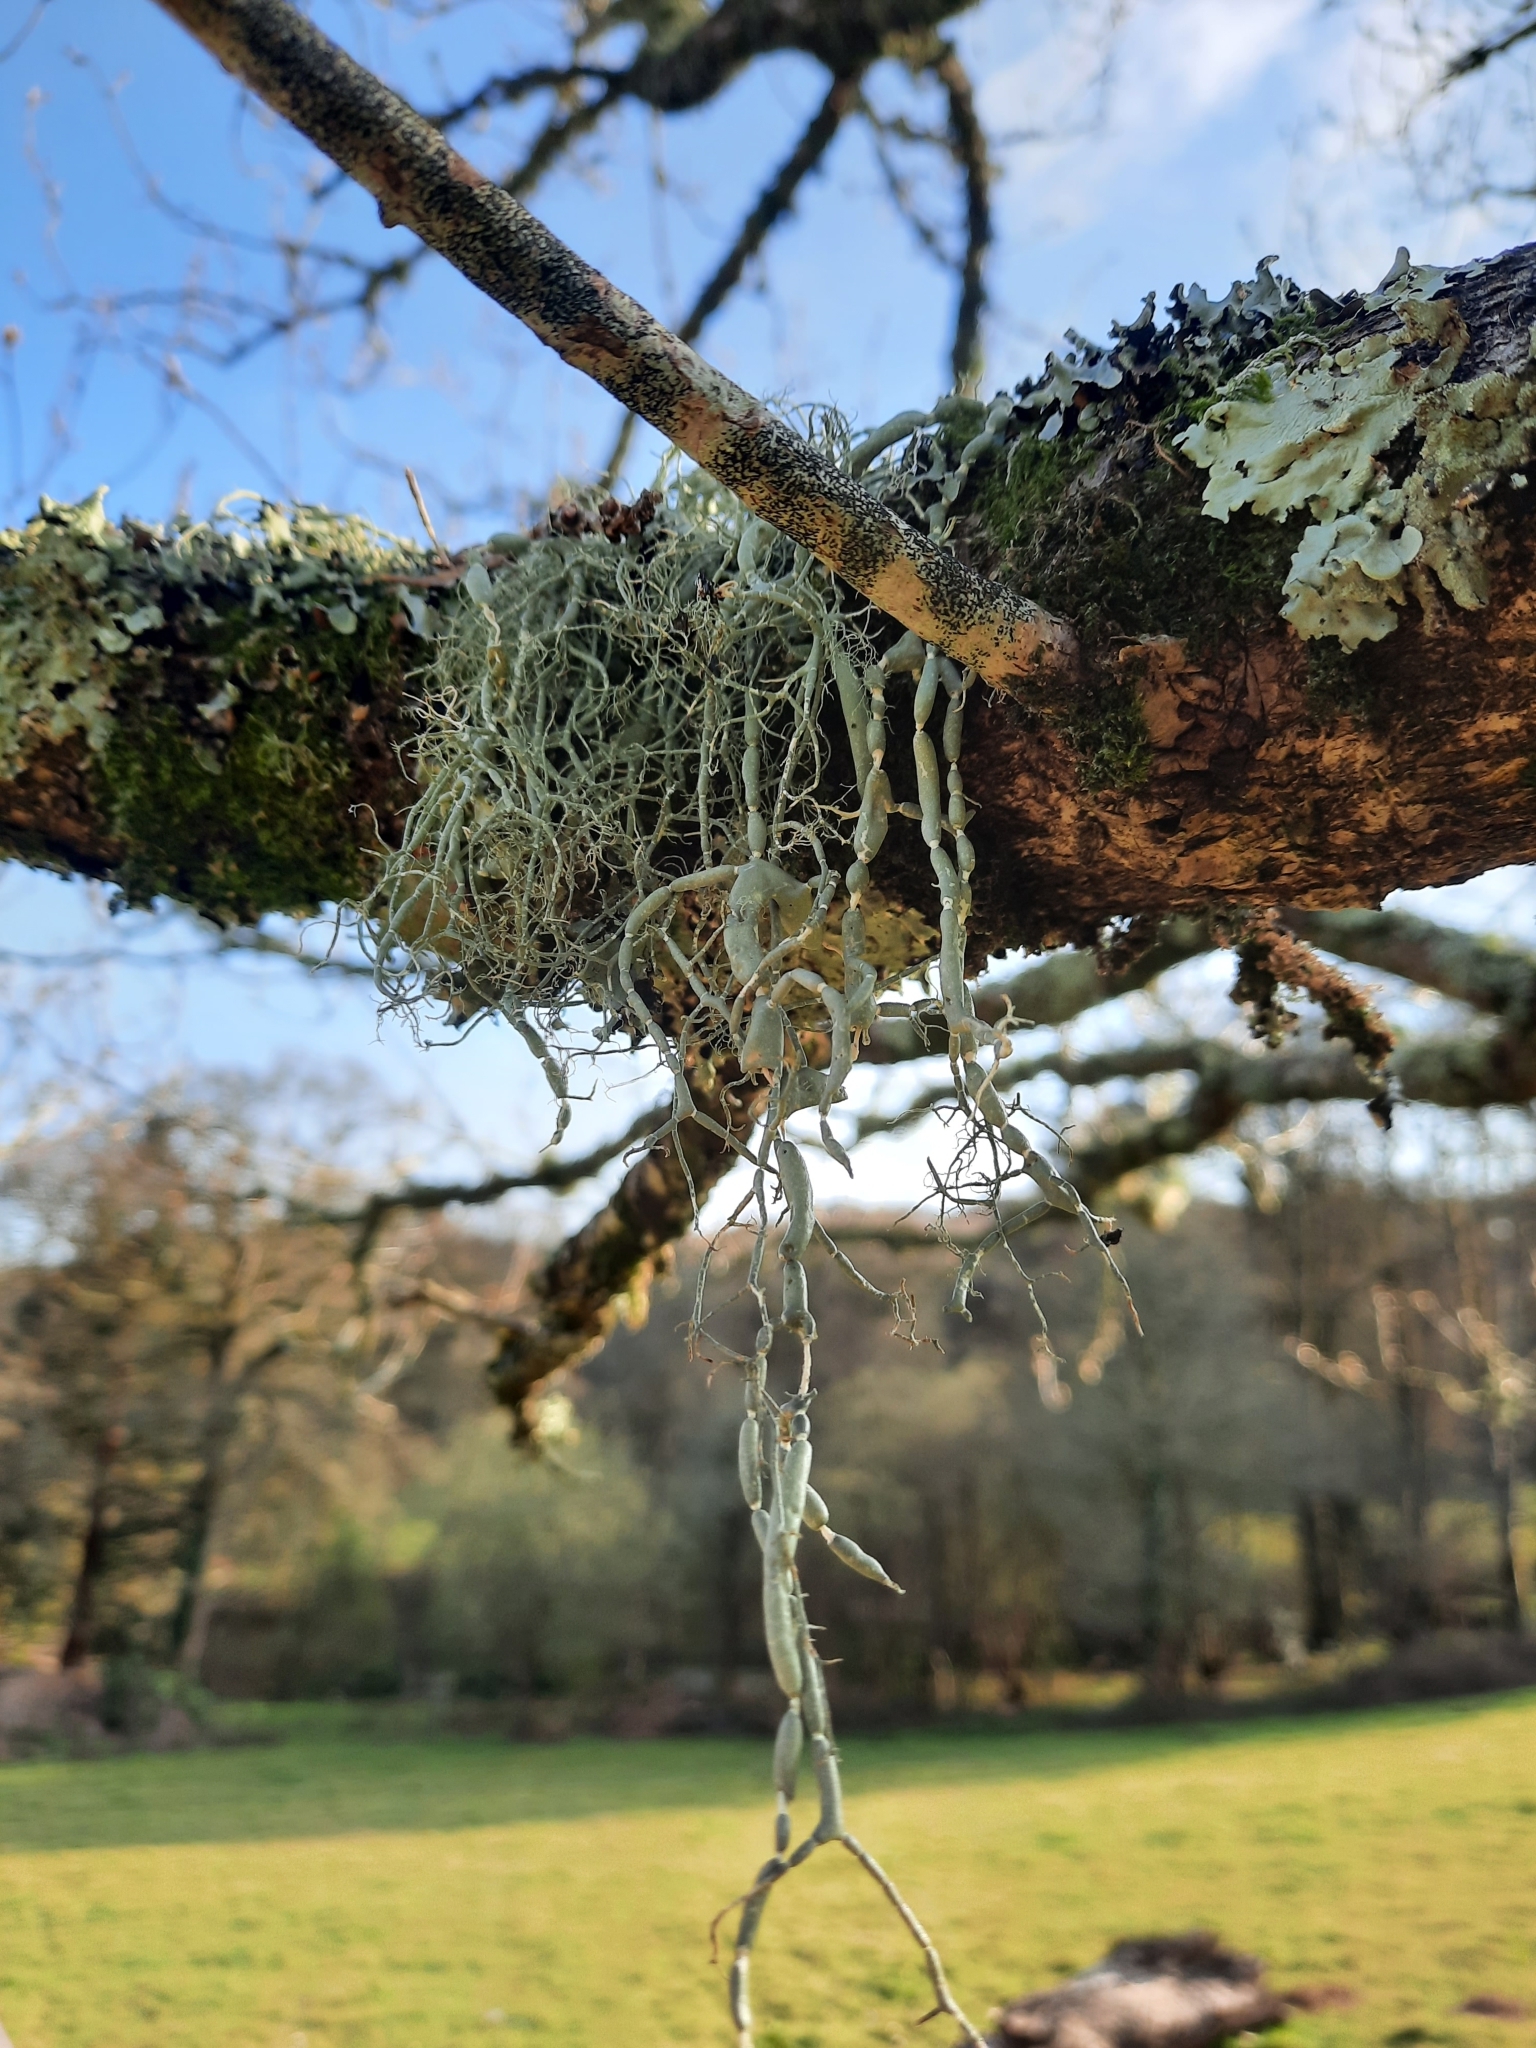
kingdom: Fungi
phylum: Ascomycota
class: Lecanoromycetes
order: Lecanorales
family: Parmeliaceae
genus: Usnea
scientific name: Usnea articulata
